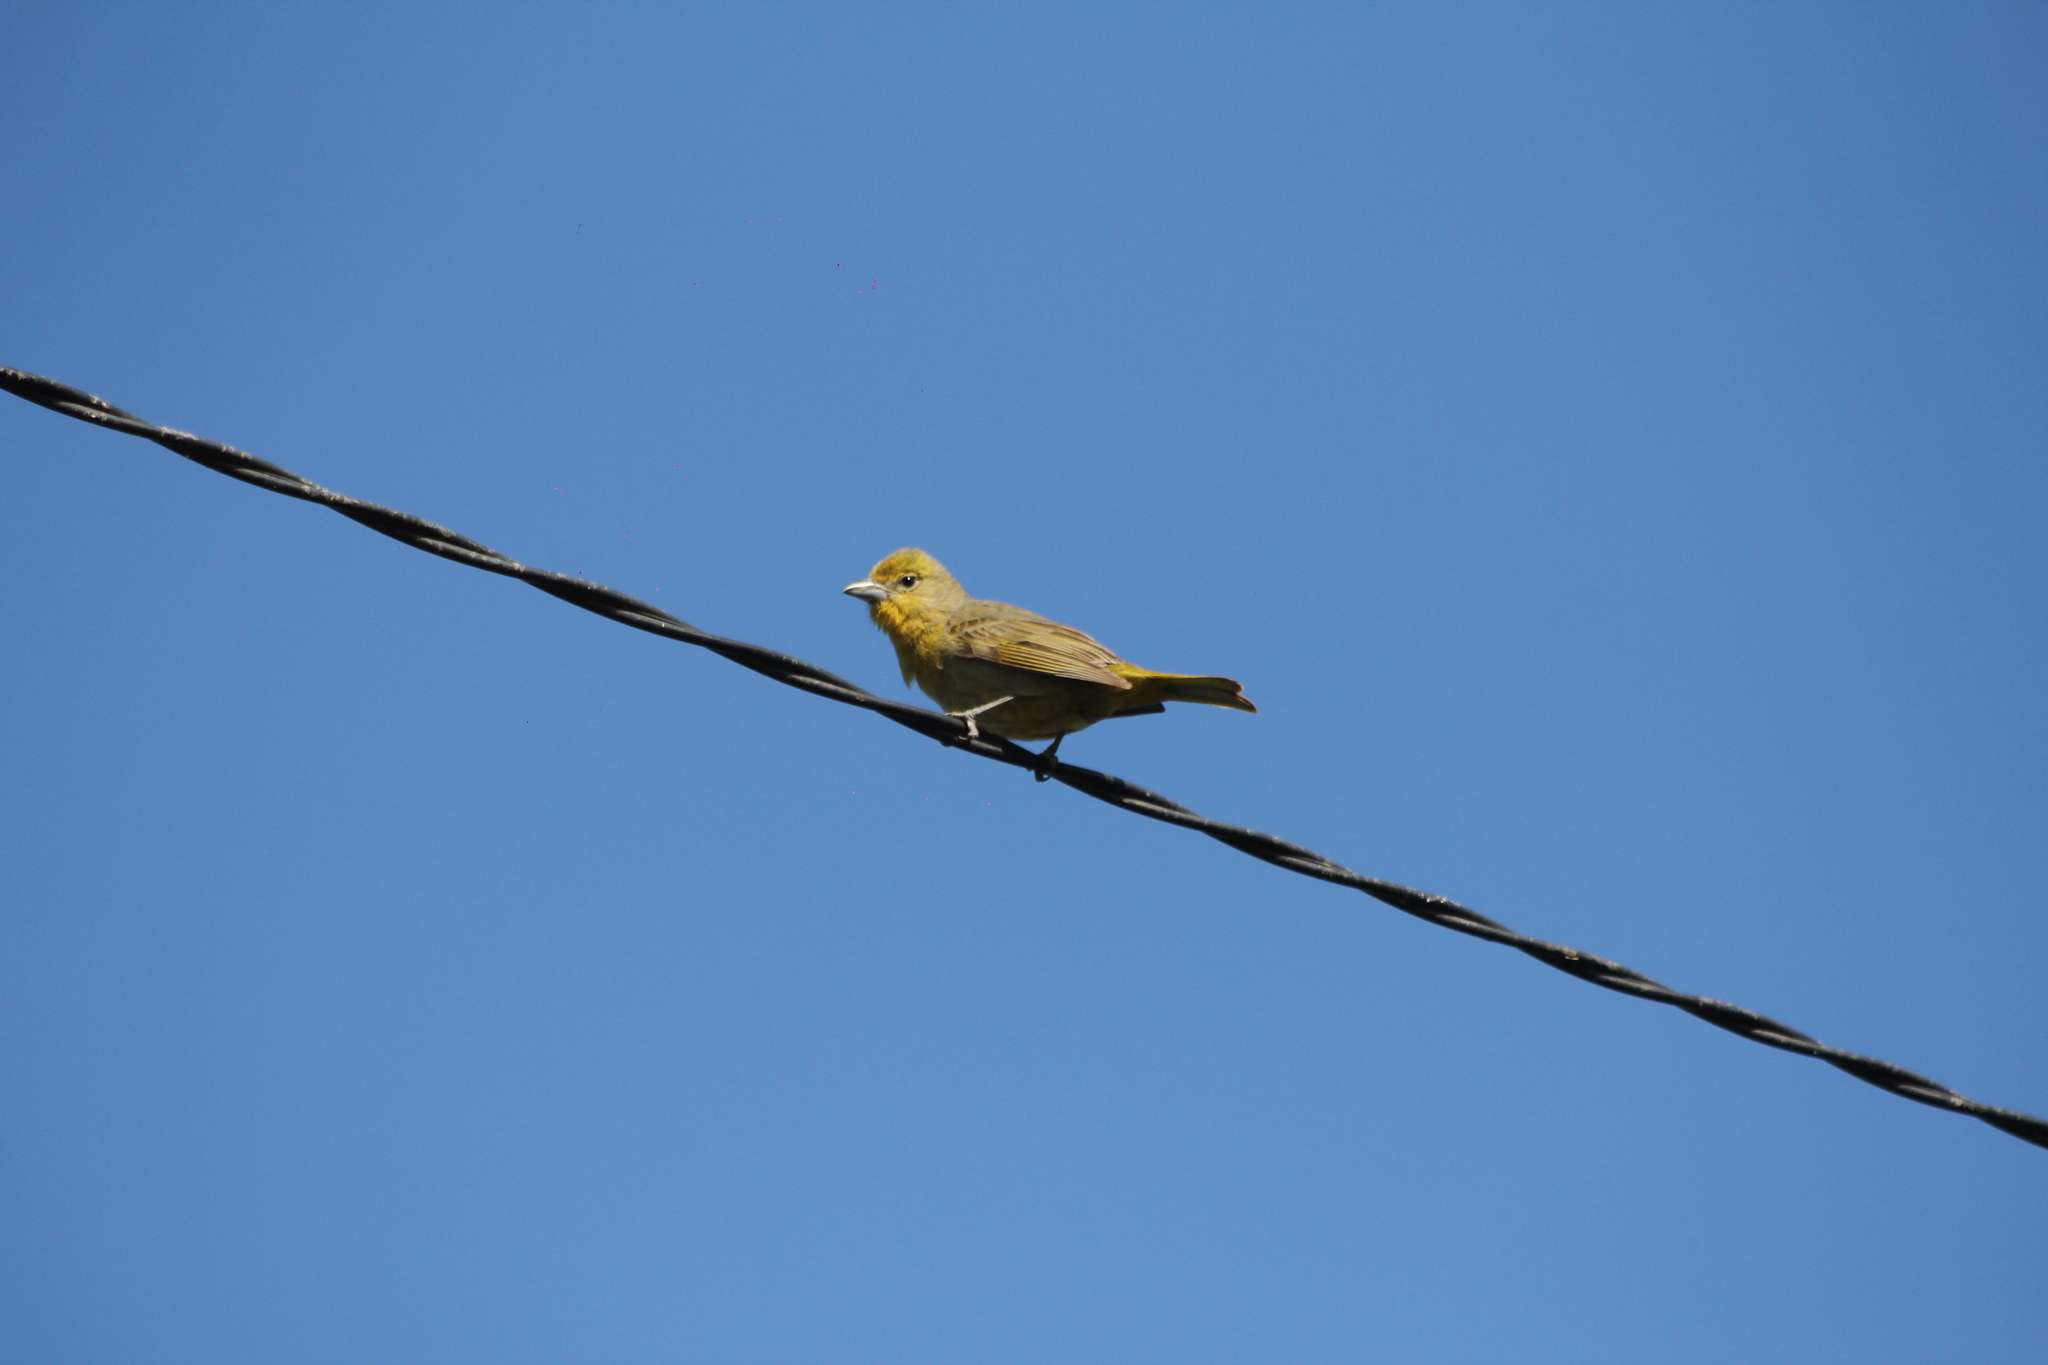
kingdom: Animalia
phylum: Chordata
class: Aves
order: Passeriformes
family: Cardinalidae
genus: Piranga
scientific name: Piranga flava
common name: Red tanager
